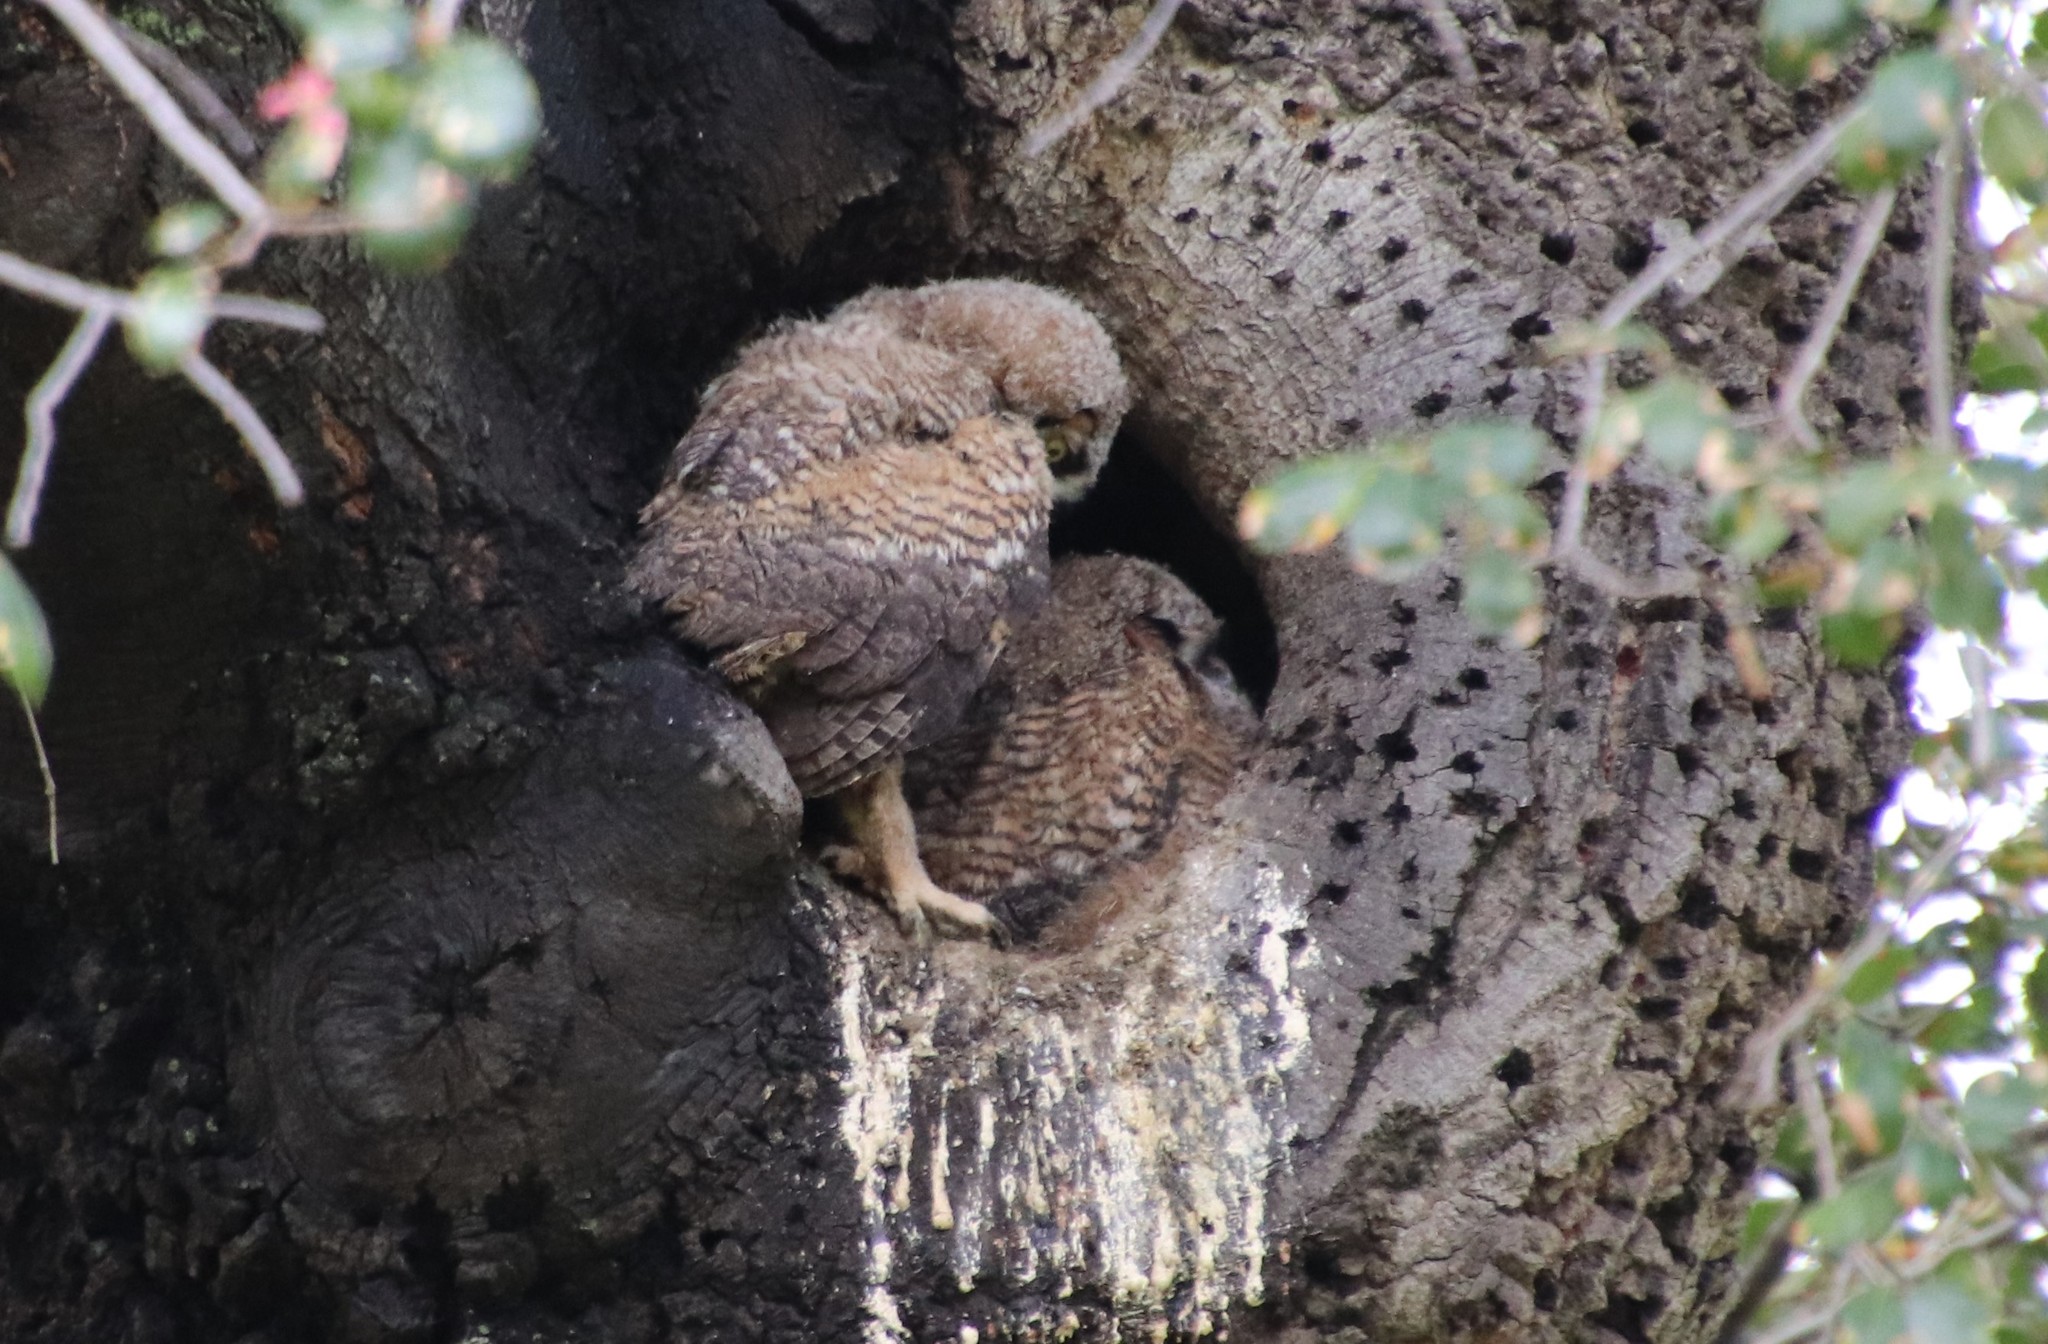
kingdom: Animalia
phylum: Chordata
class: Aves
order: Strigiformes
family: Strigidae
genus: Bubo
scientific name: Bubo virginianus
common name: Great horned owl
